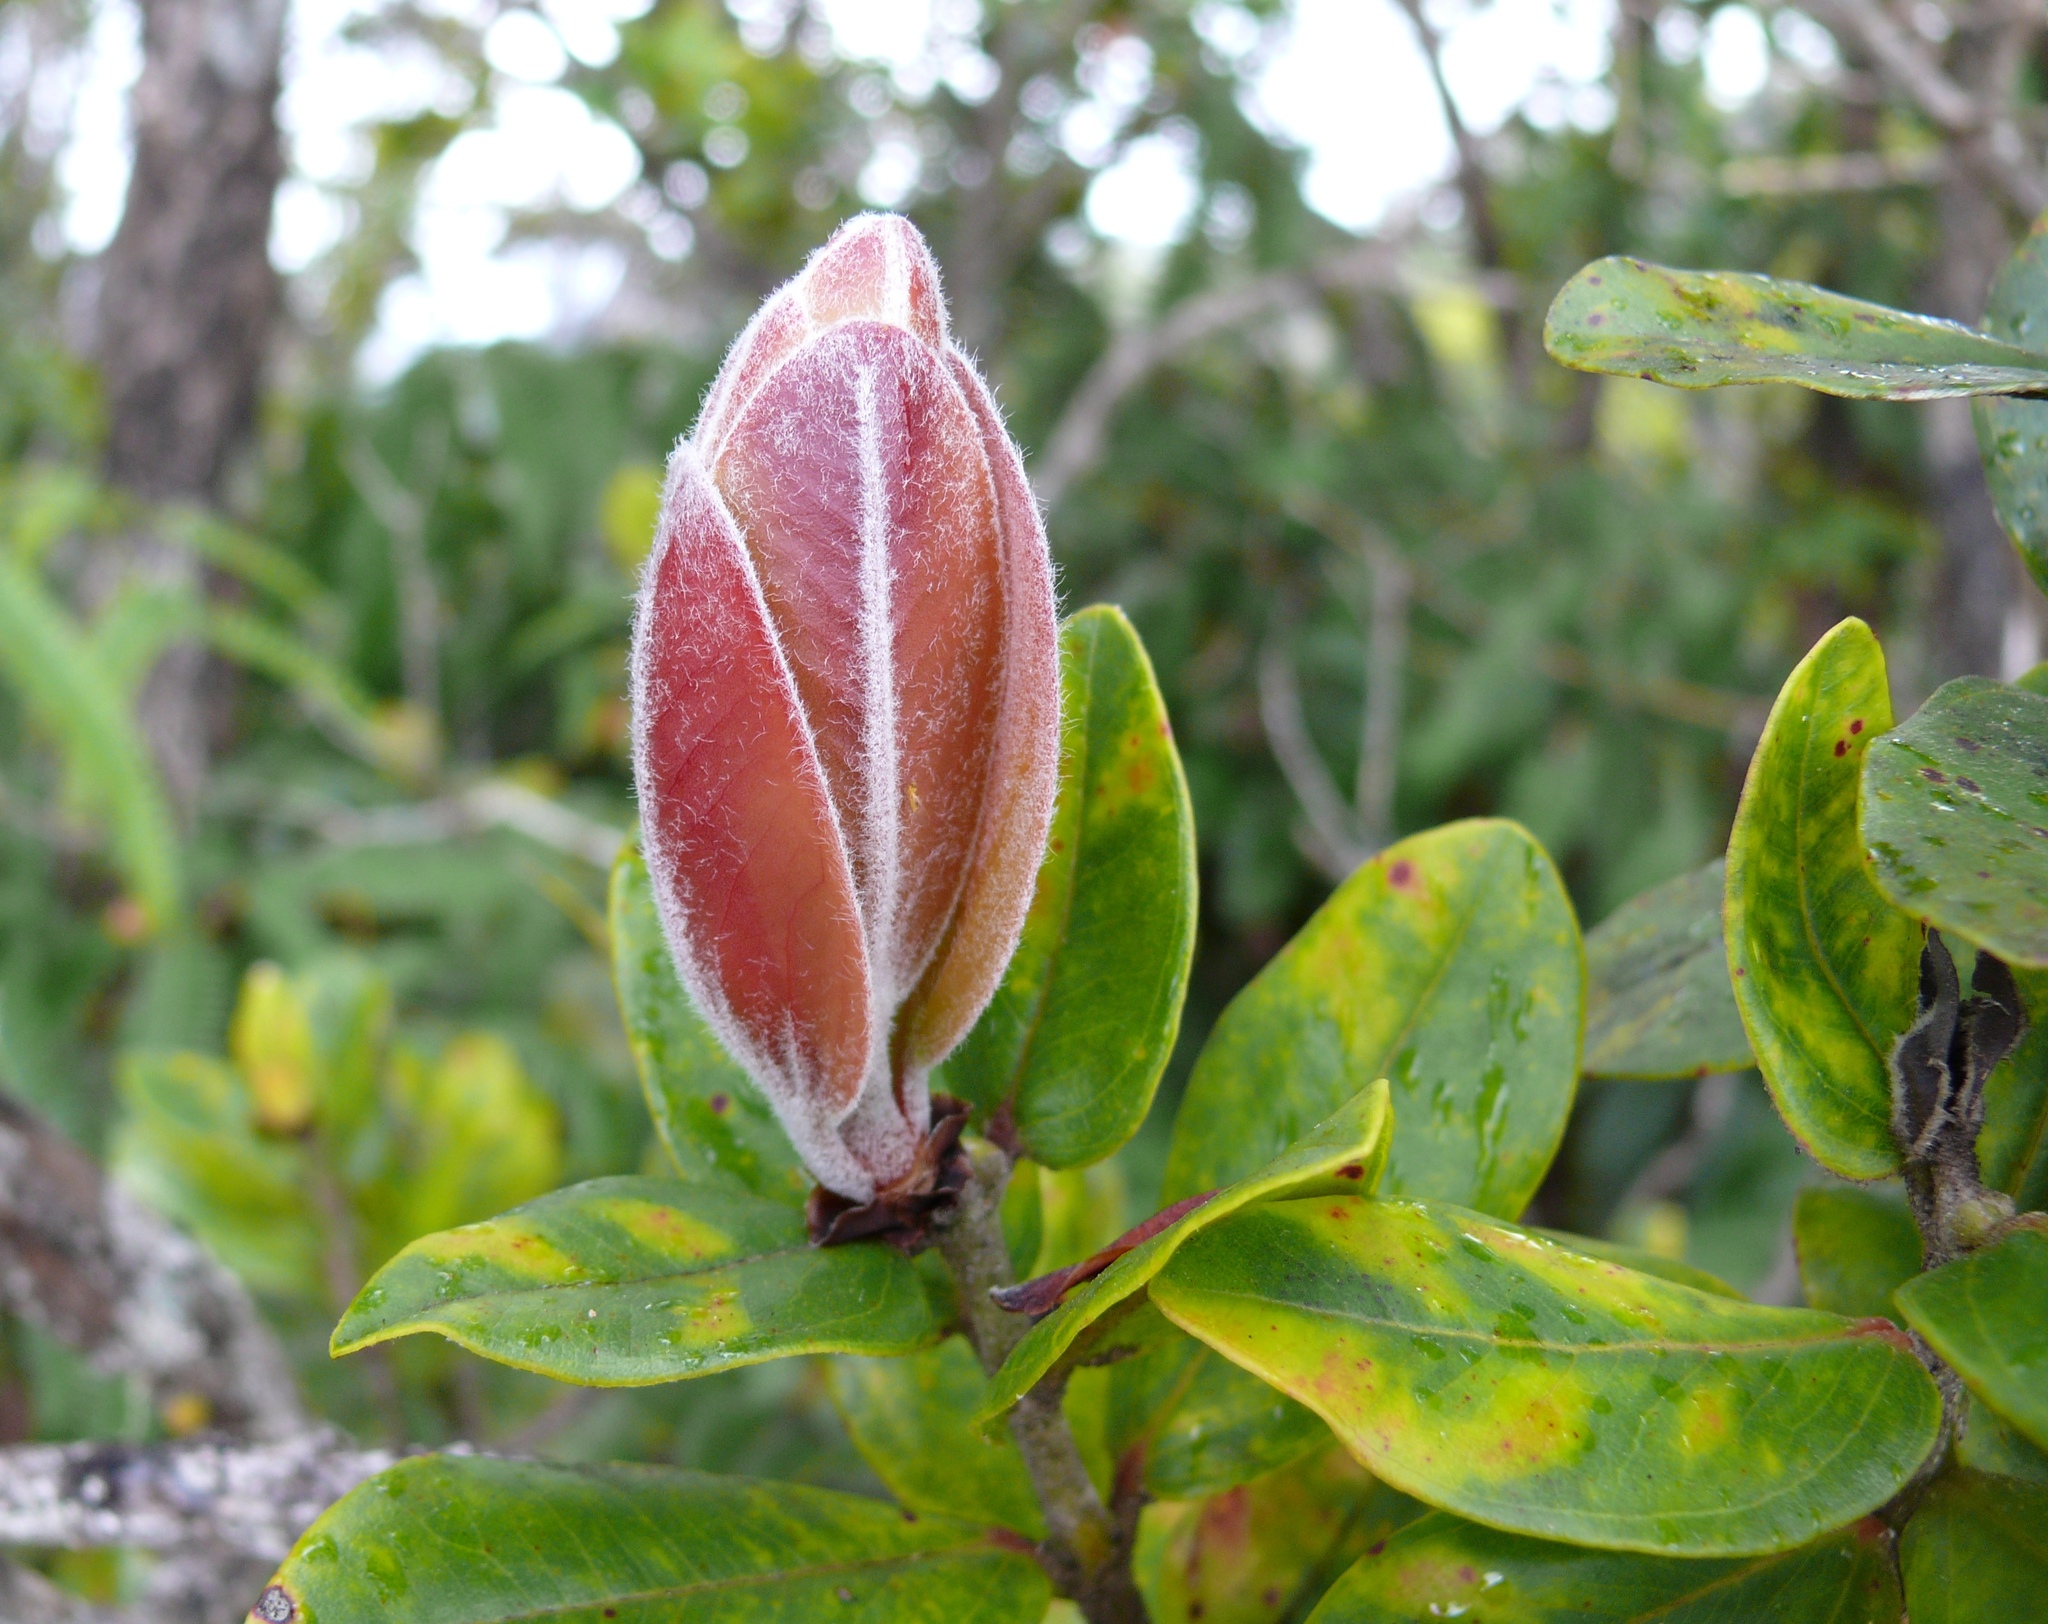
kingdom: Plantae
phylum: Tracheophyta
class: Magnoliopsida
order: Myrtales
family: Myrtaceae
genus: Metrosideros
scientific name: Metrosideros polymorpha
